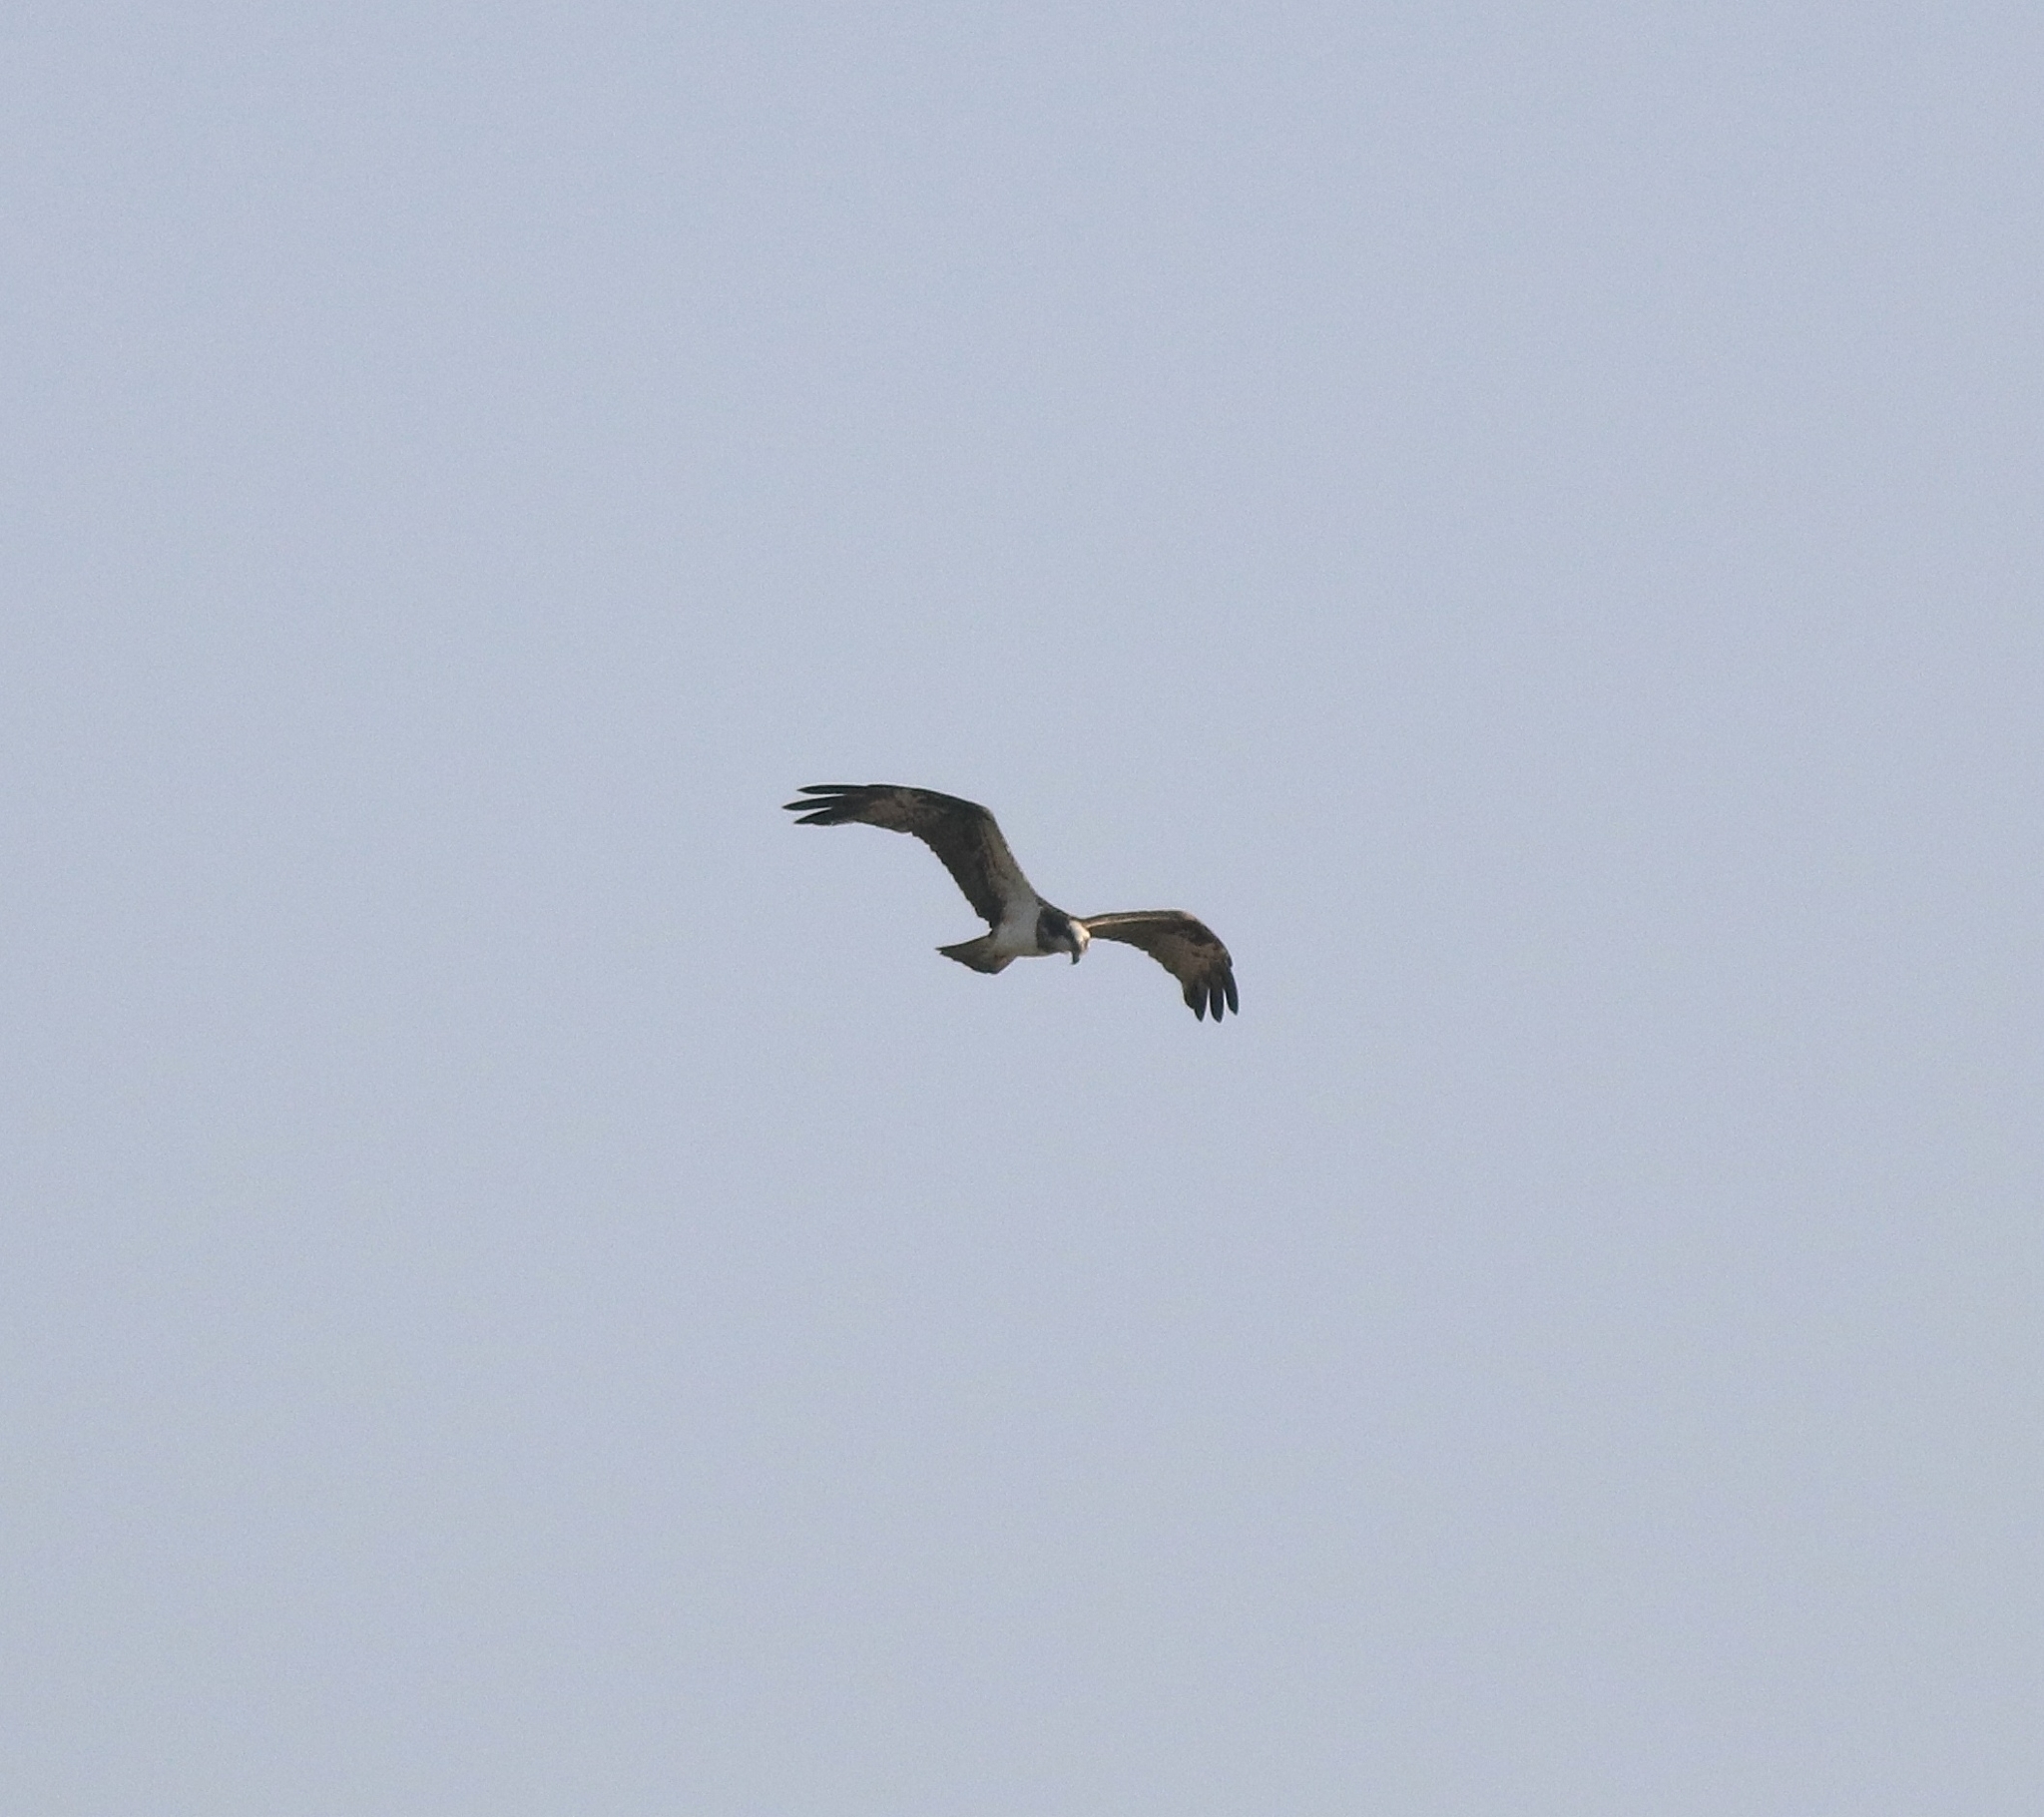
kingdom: Animalia
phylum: Chordata
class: Aves
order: Accipitriformes
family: Pandionidae
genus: Pandion
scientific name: Pandion haliaetus
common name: Osprey
